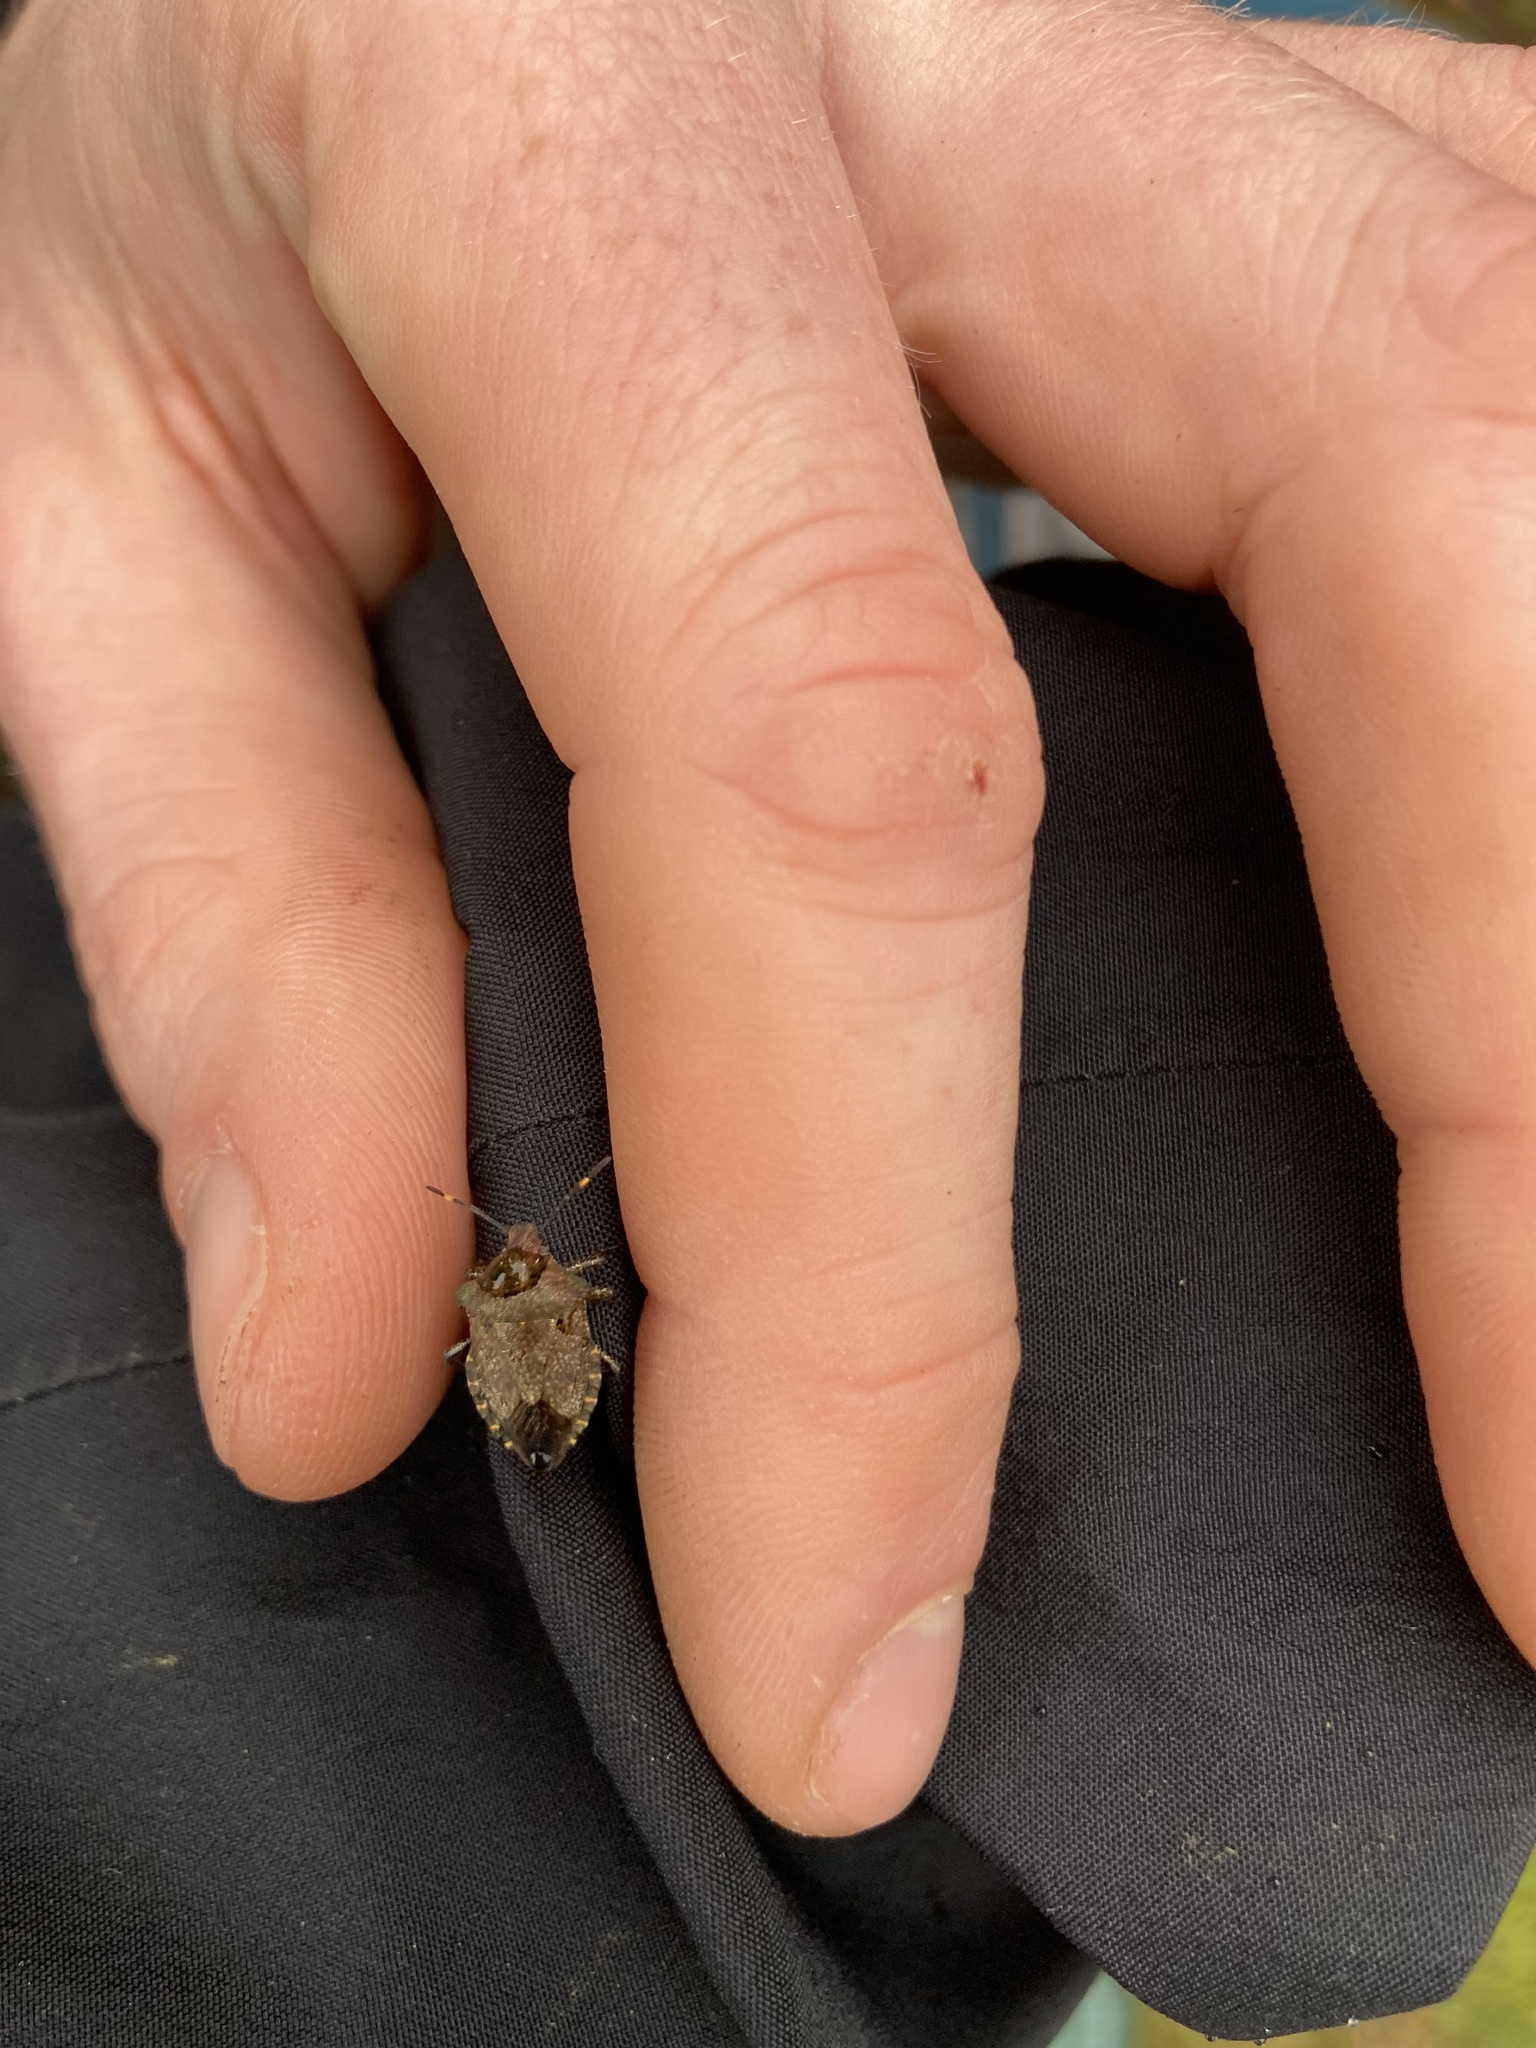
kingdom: Animalia
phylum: Arthropoda
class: Insecta
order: Hemiptera
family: Pentatomidae
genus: Troilus
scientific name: Troilus luridus
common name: Bronze shieldbug
